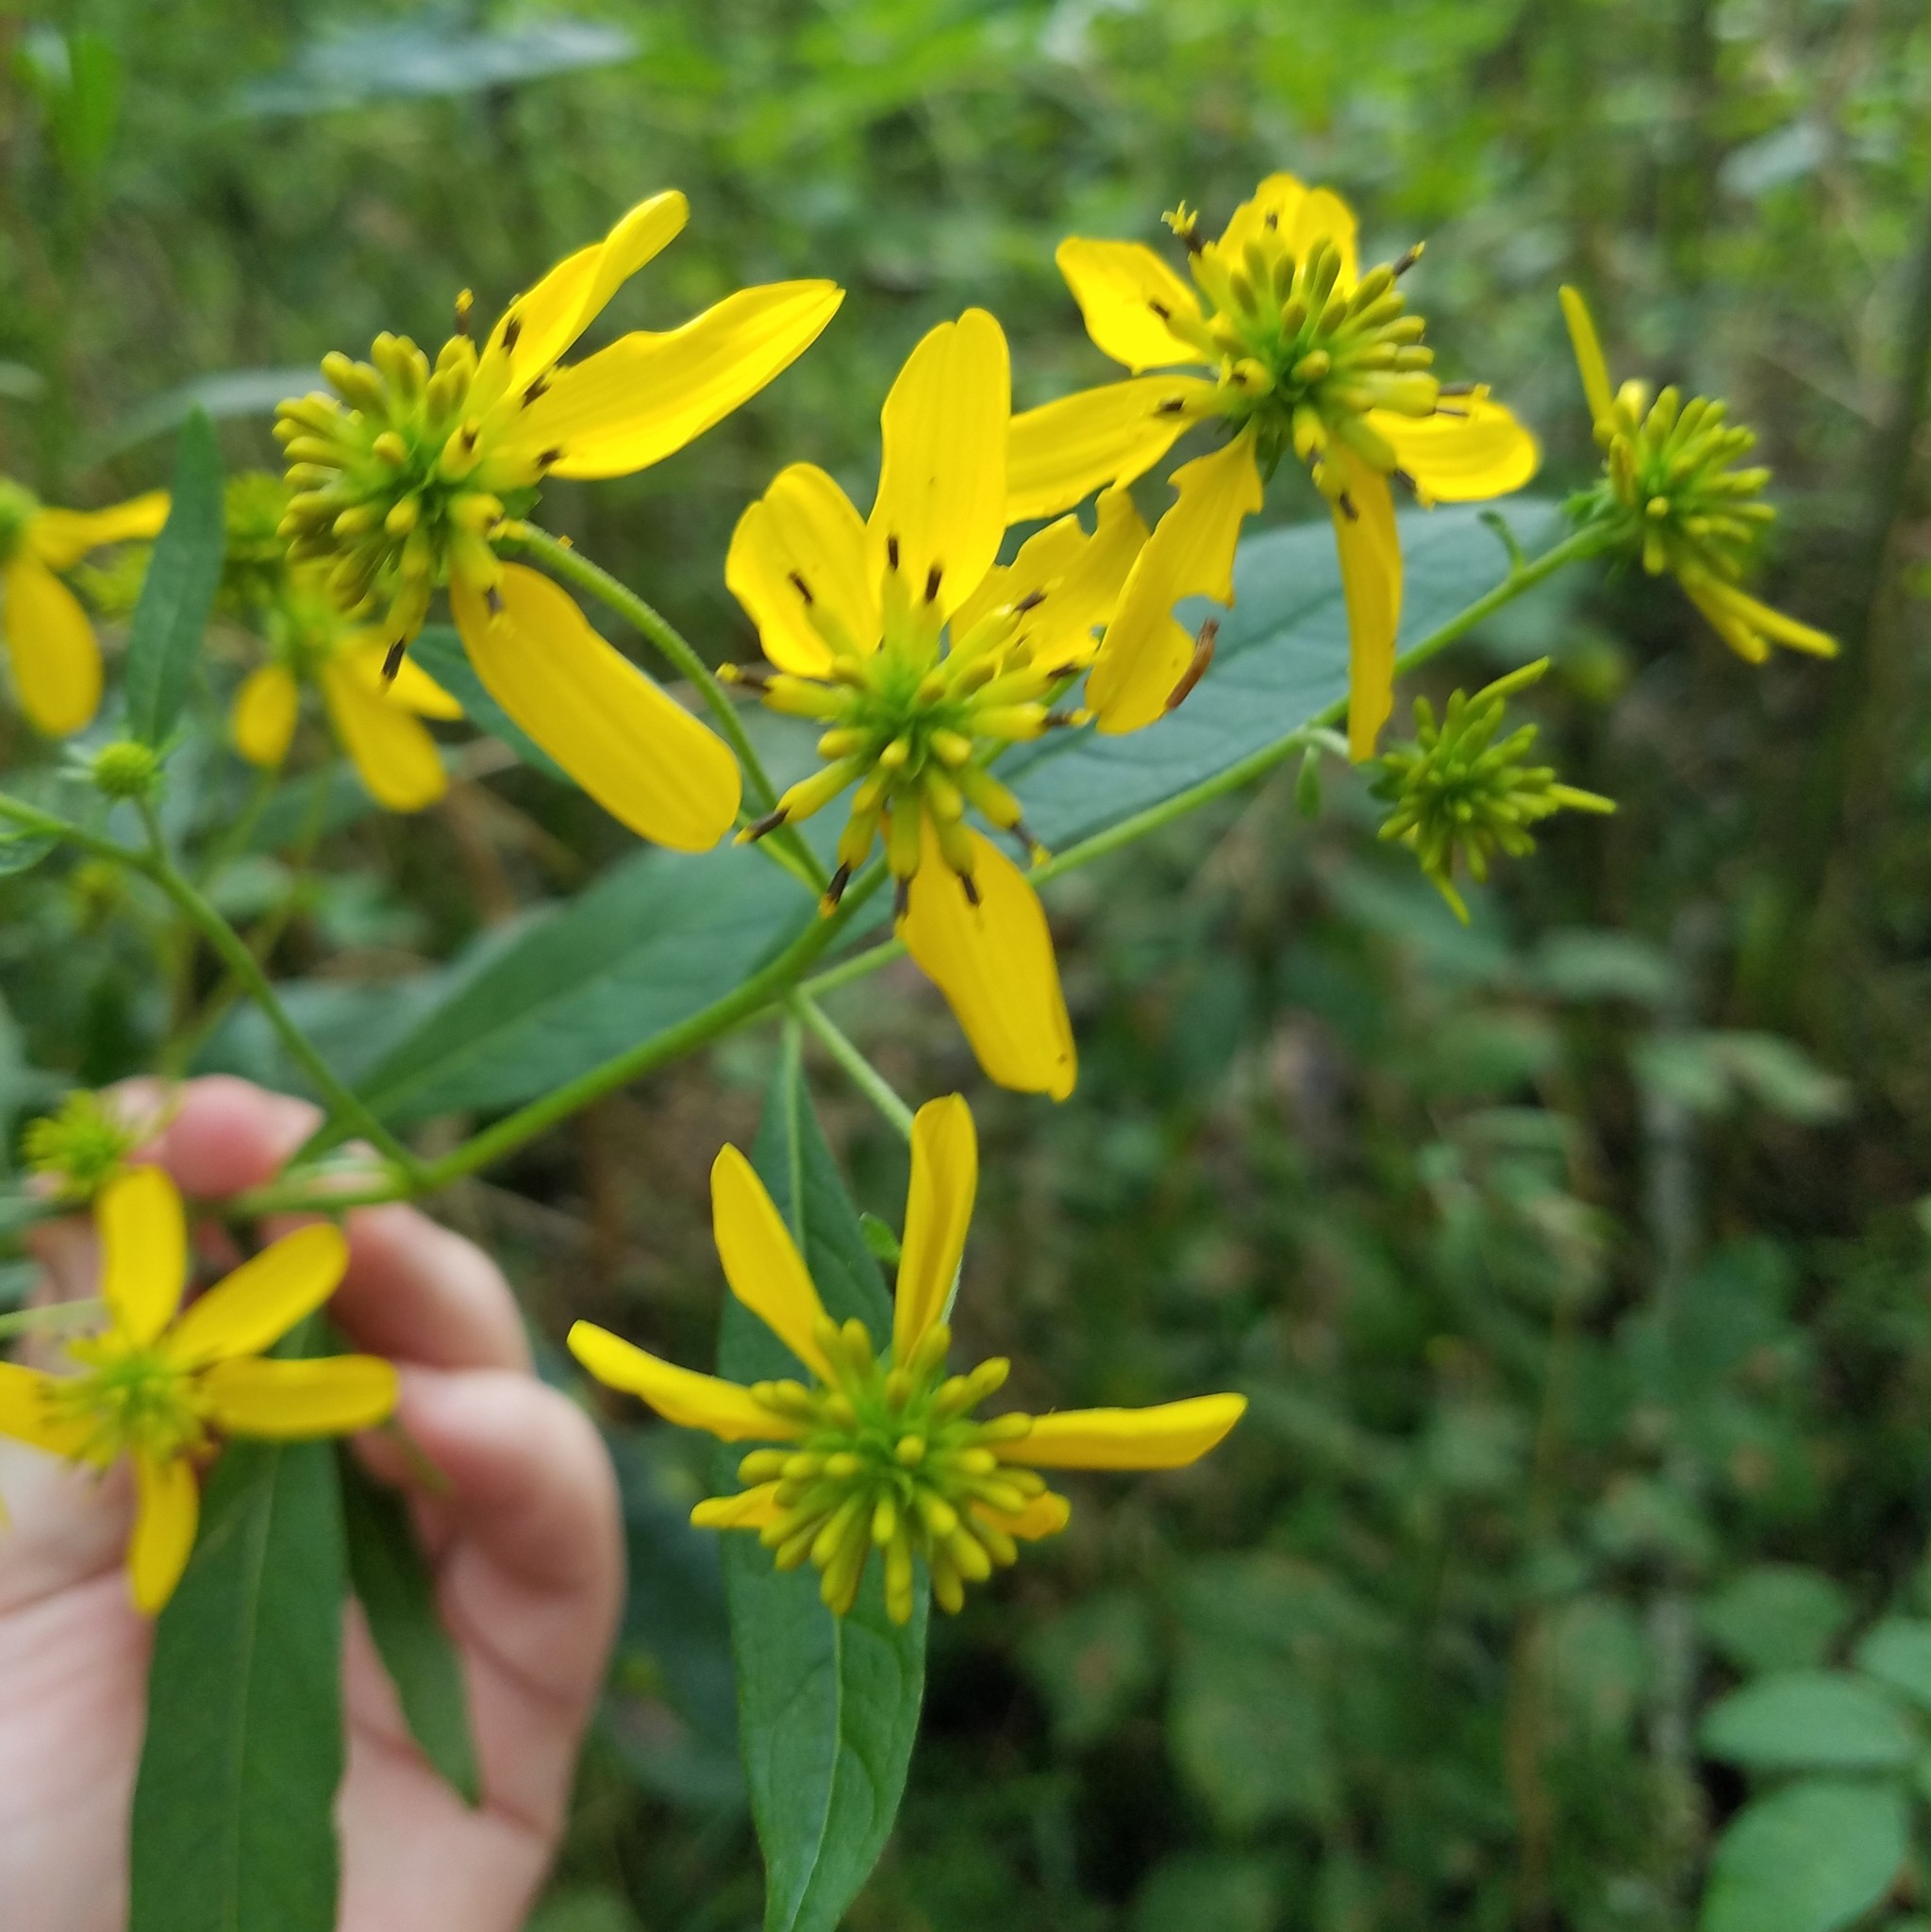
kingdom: Plantae
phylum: Tracheophyta
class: Magnoliopsida
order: Asterales
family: Asteraceae
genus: Verbesina
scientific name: Verbesina alternifolia
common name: Wingstem
